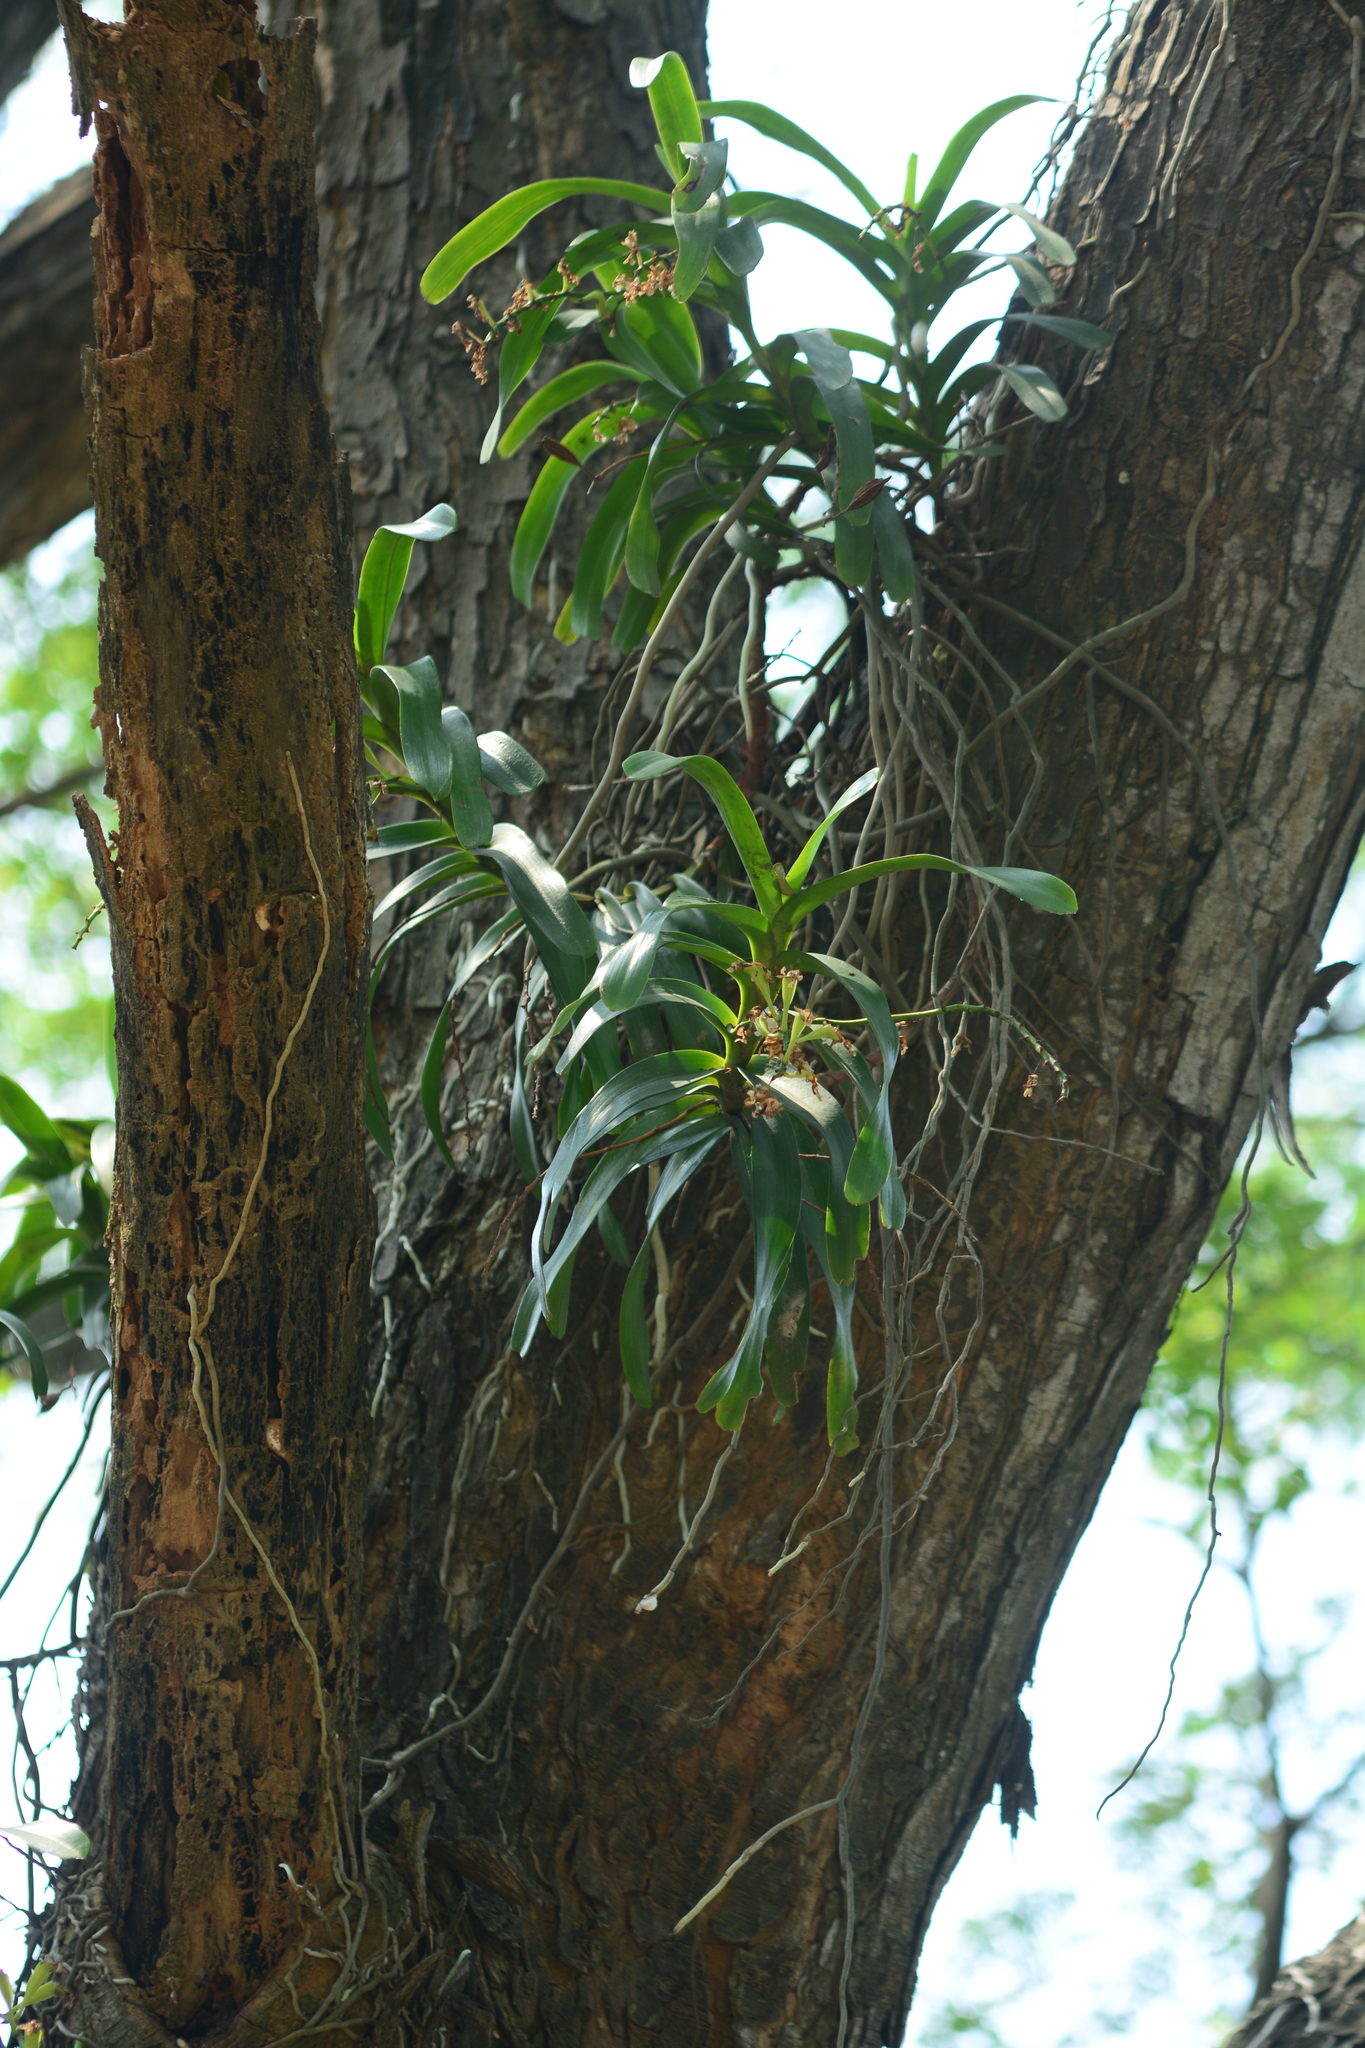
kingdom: Plantae
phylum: Tracheophyta
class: Liliopsida
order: Asparagales
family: Orchidaceae
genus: Aerides
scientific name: Aerides odorata
